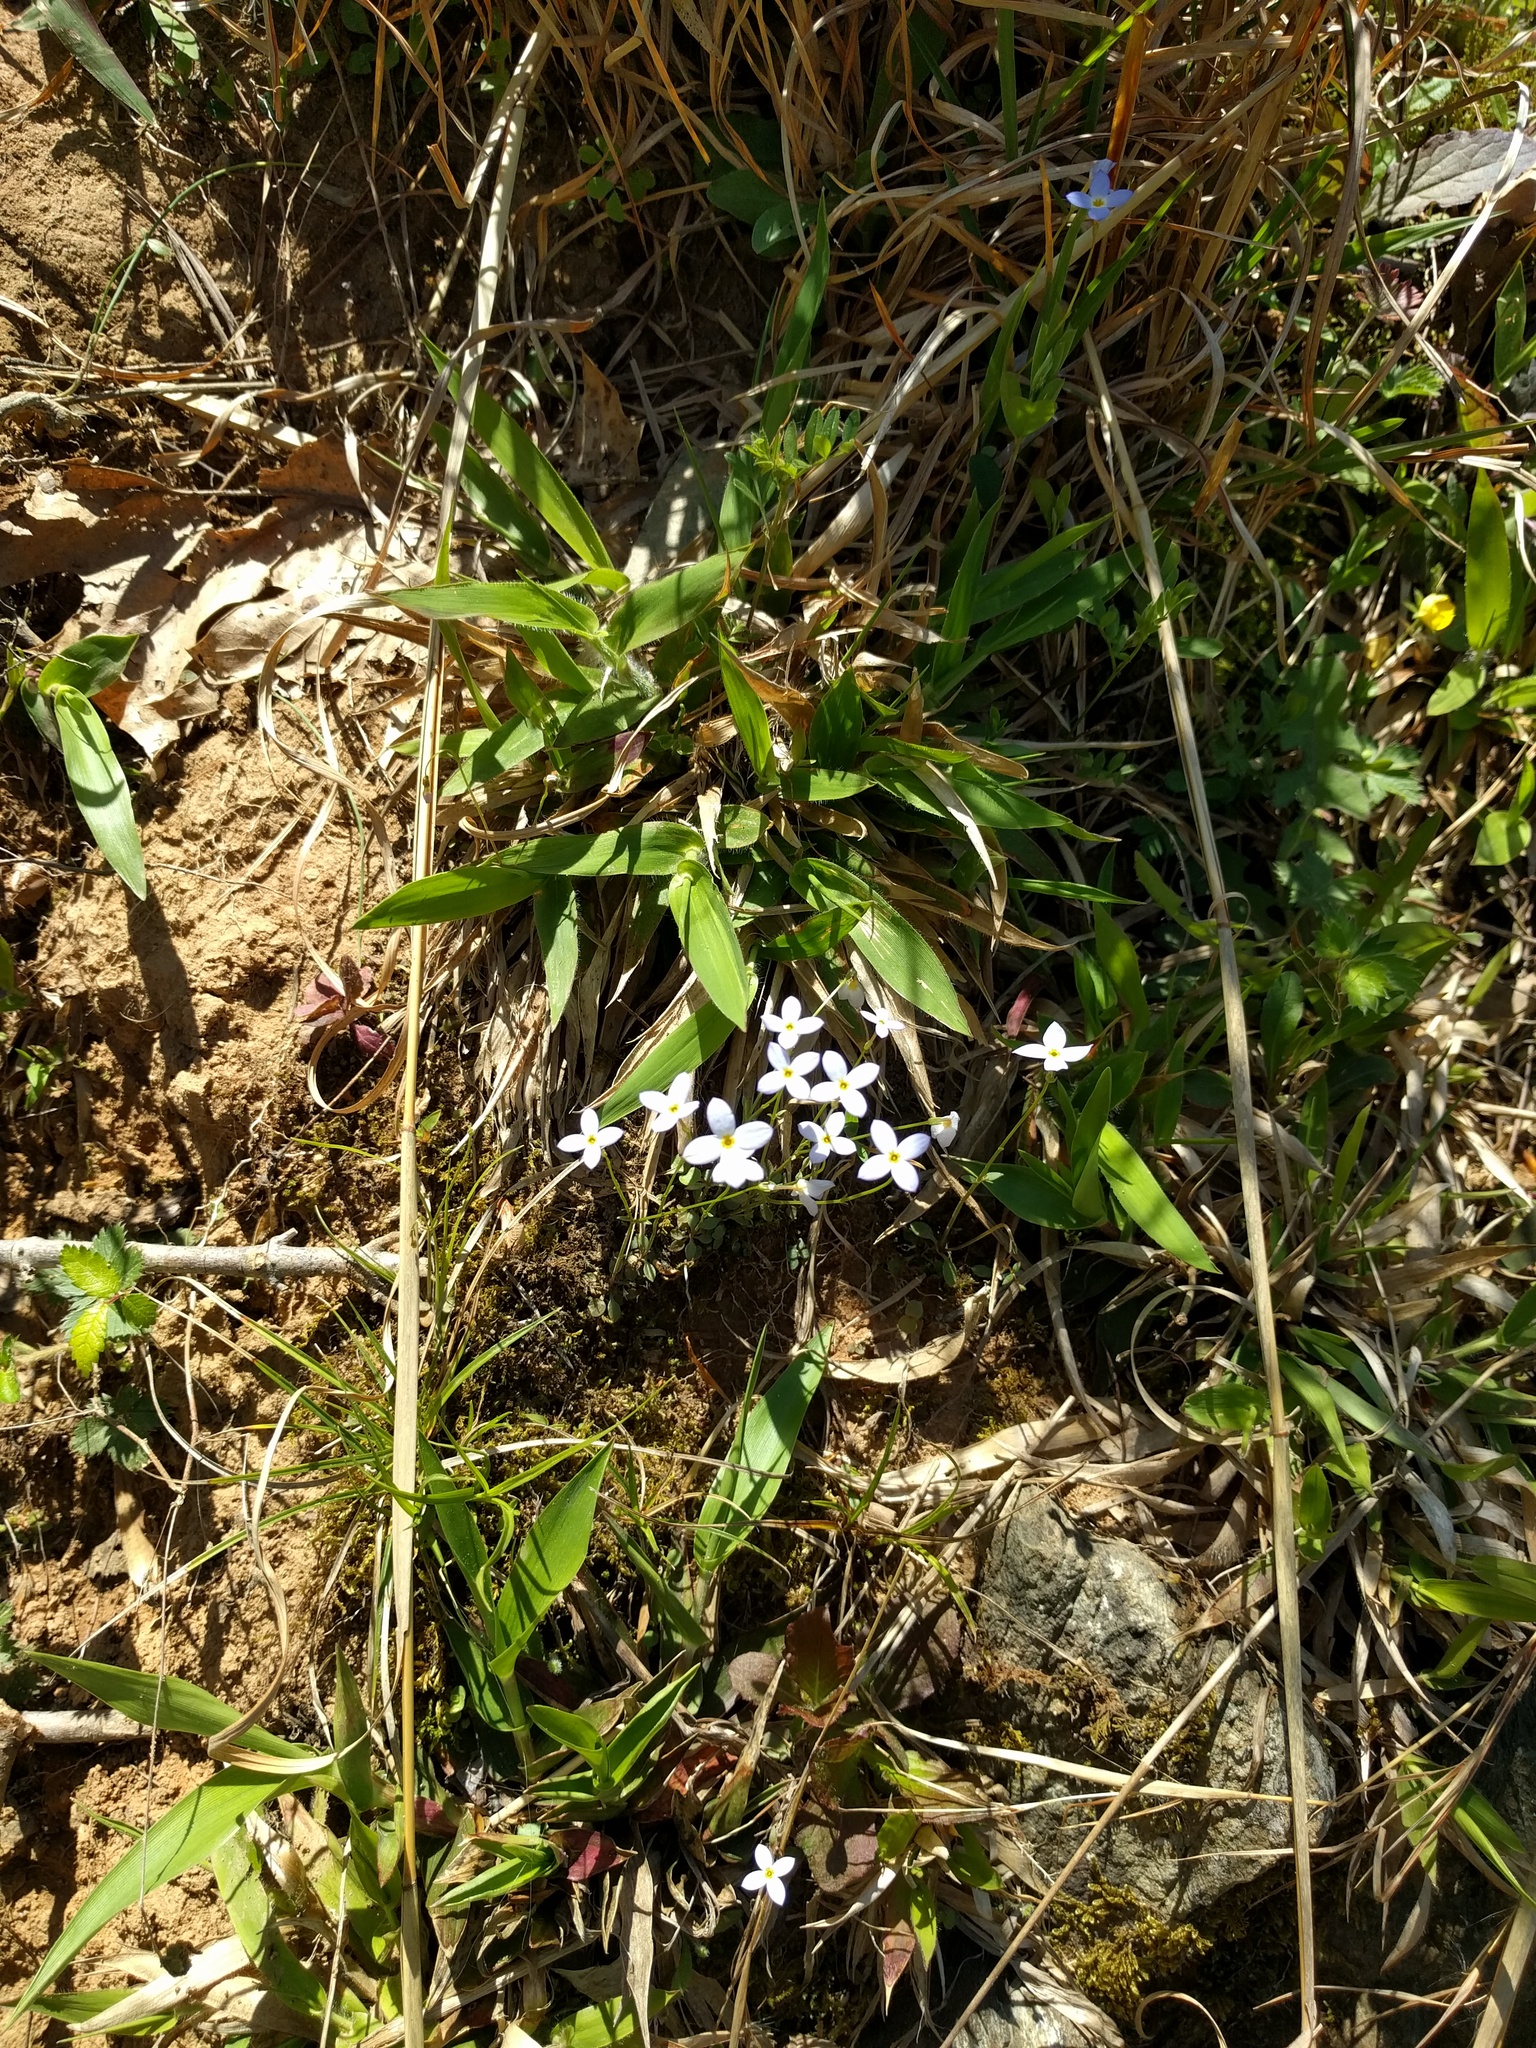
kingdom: Plantae
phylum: Tracheophyta
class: Magnoliopsida
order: Gentianales
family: Rubiaceae
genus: Houstonia
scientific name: Houstonia caerulea
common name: Bluets
